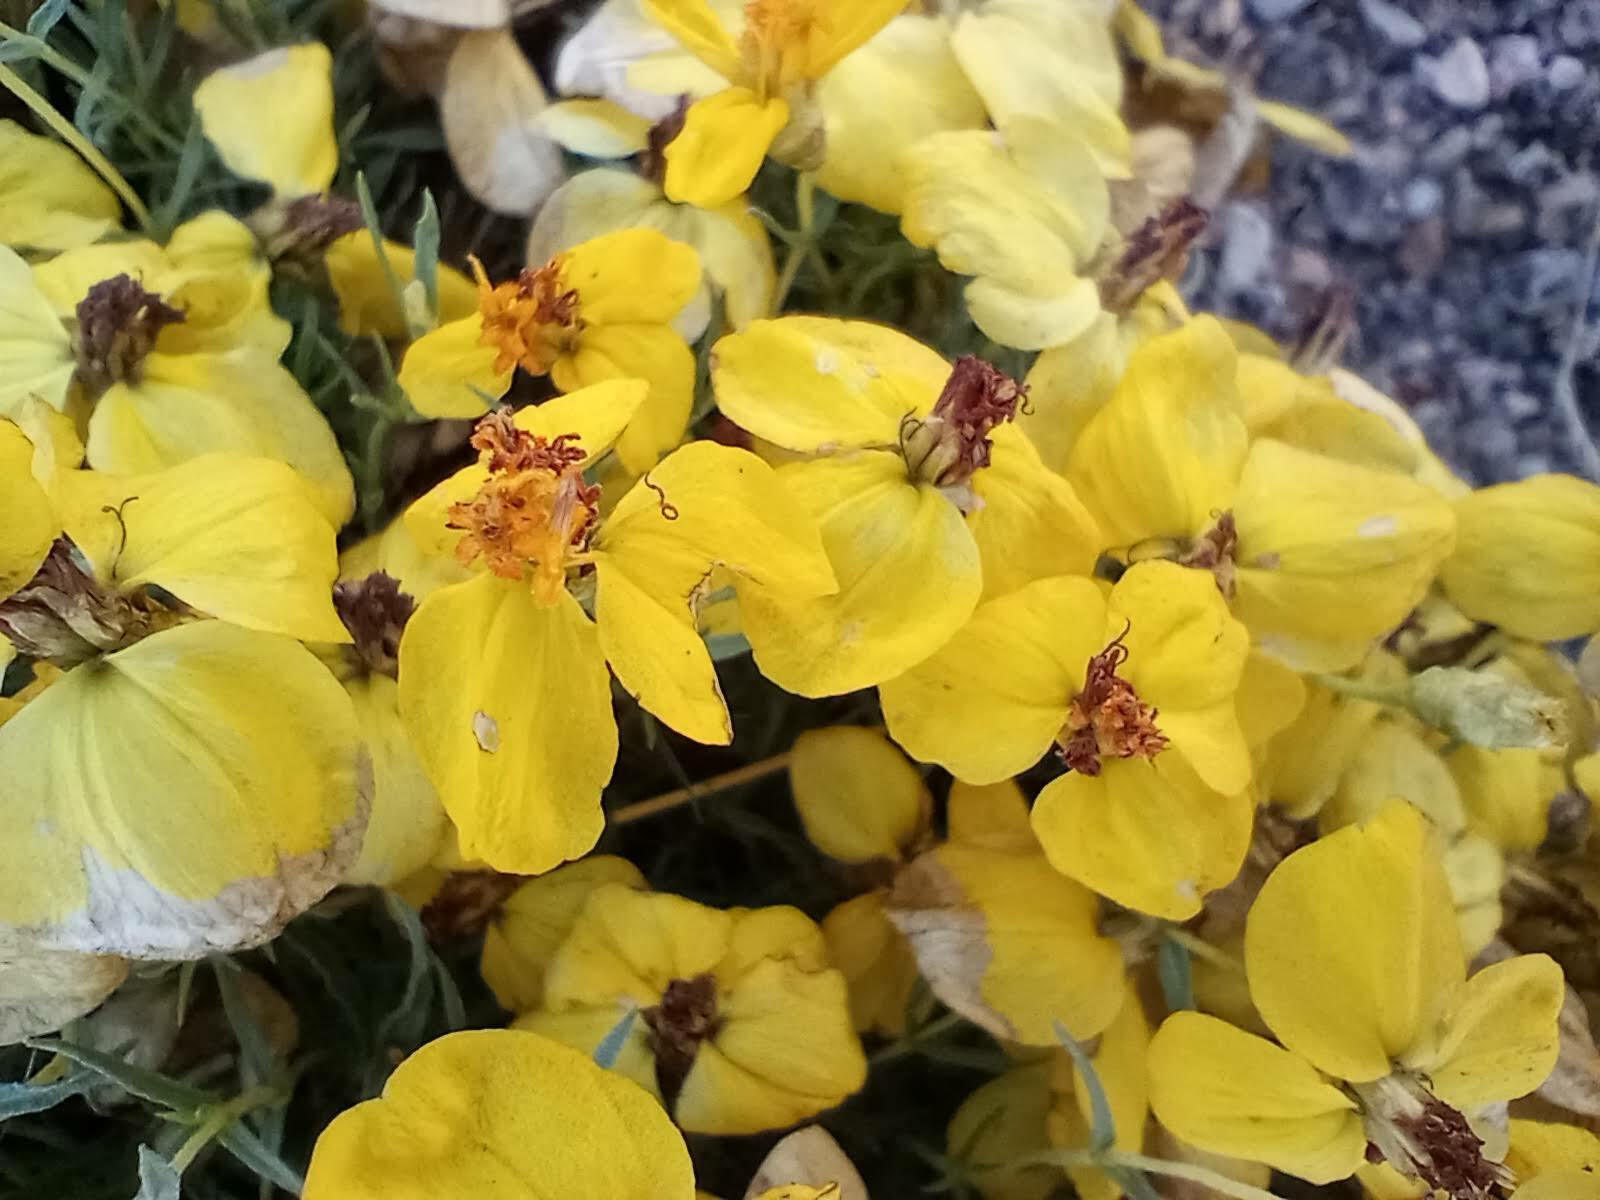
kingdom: Plantae
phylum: Tracheophyta
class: Magnoliopsida
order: Asterales
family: Asteraceae
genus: Zinnia
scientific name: Zinnia grandiflora
